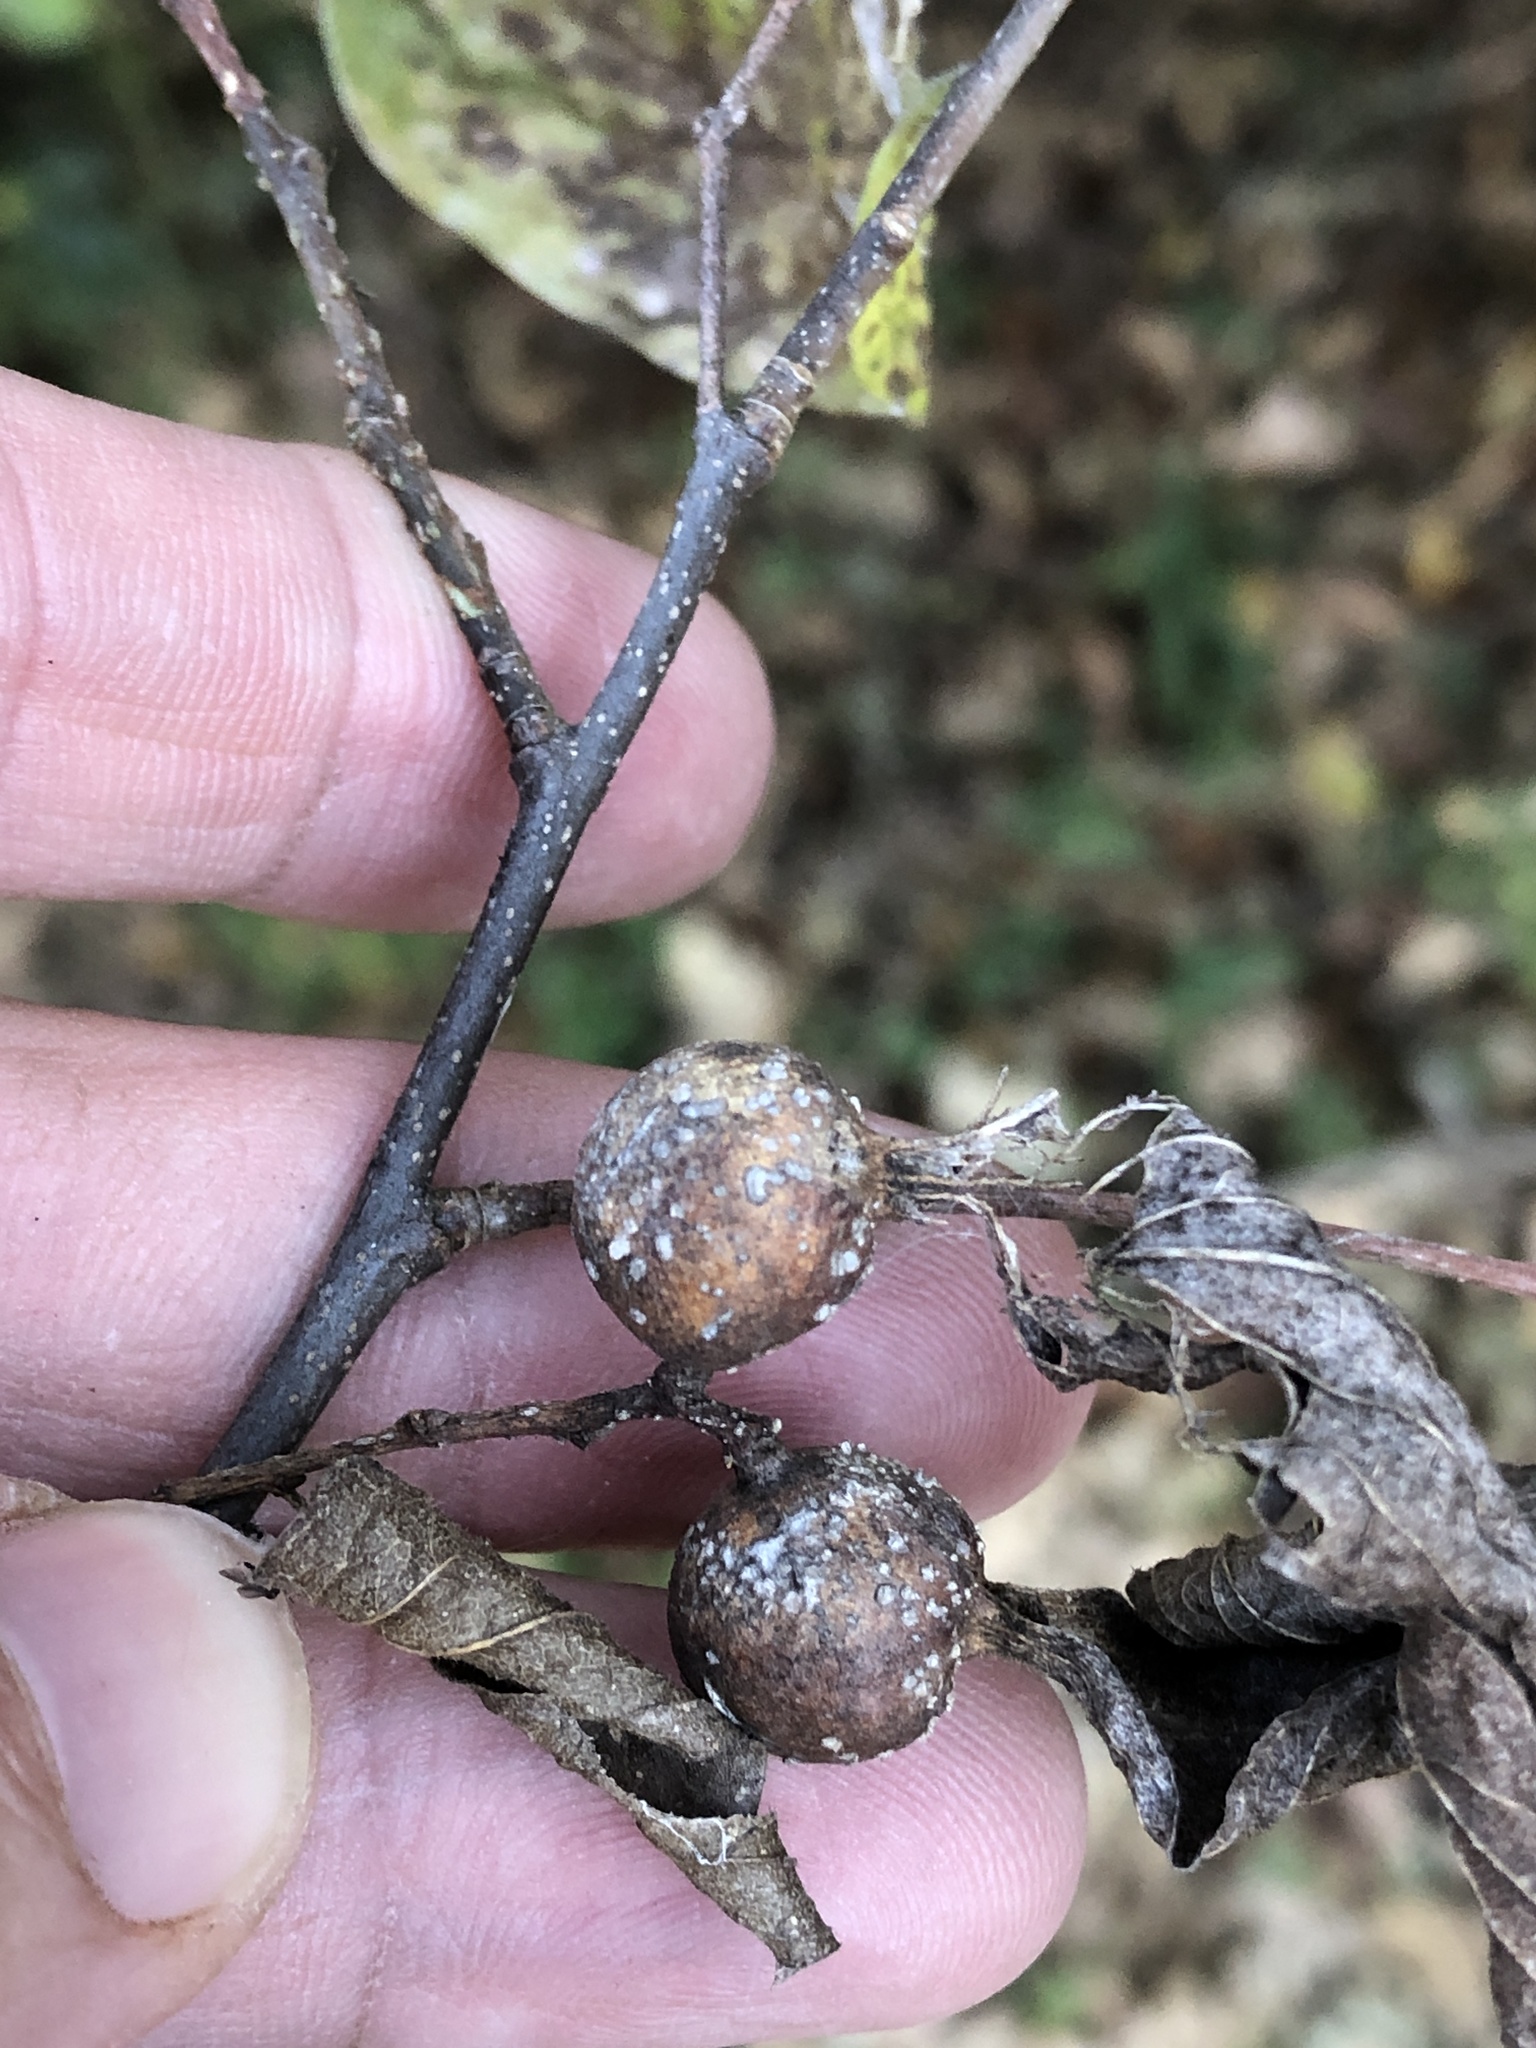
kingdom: Animalia
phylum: Arthropoda
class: Insecta
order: Hemiptera
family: Aphalaridae
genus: Pachypsylla
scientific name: Pachypsylla venusta
